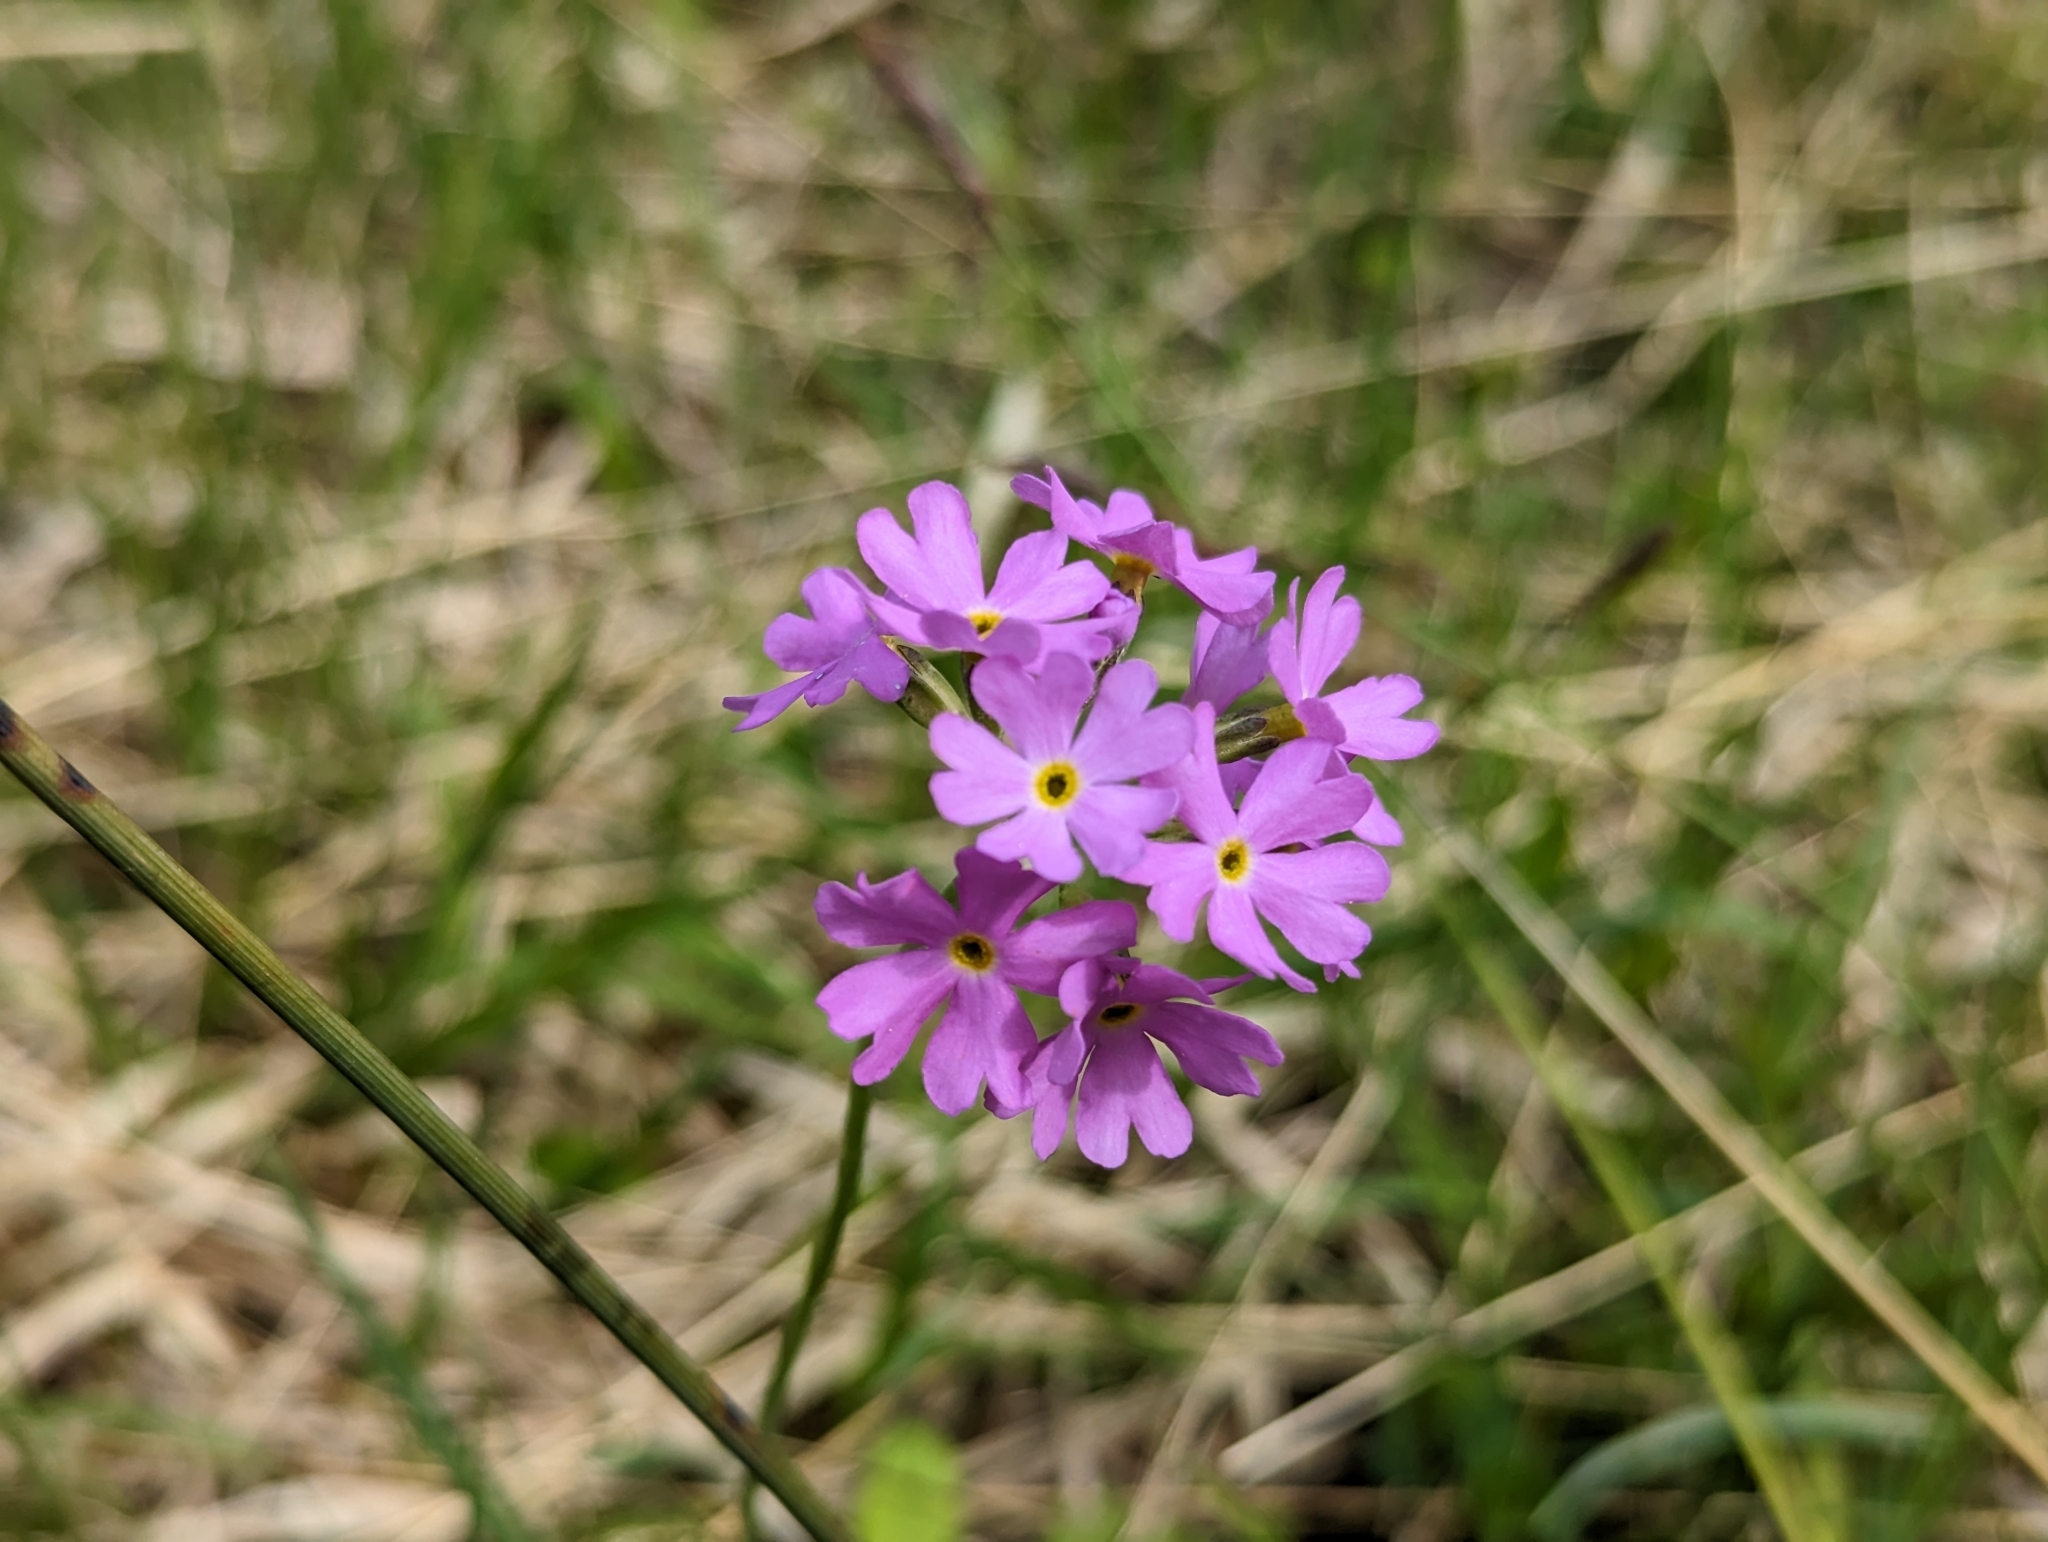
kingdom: Plantae
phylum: Tracheophyta
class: Magnoliopsida
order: Ericales
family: Primulaceae
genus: Primula
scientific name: Primula farinosa
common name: Bird's-eye primrose
